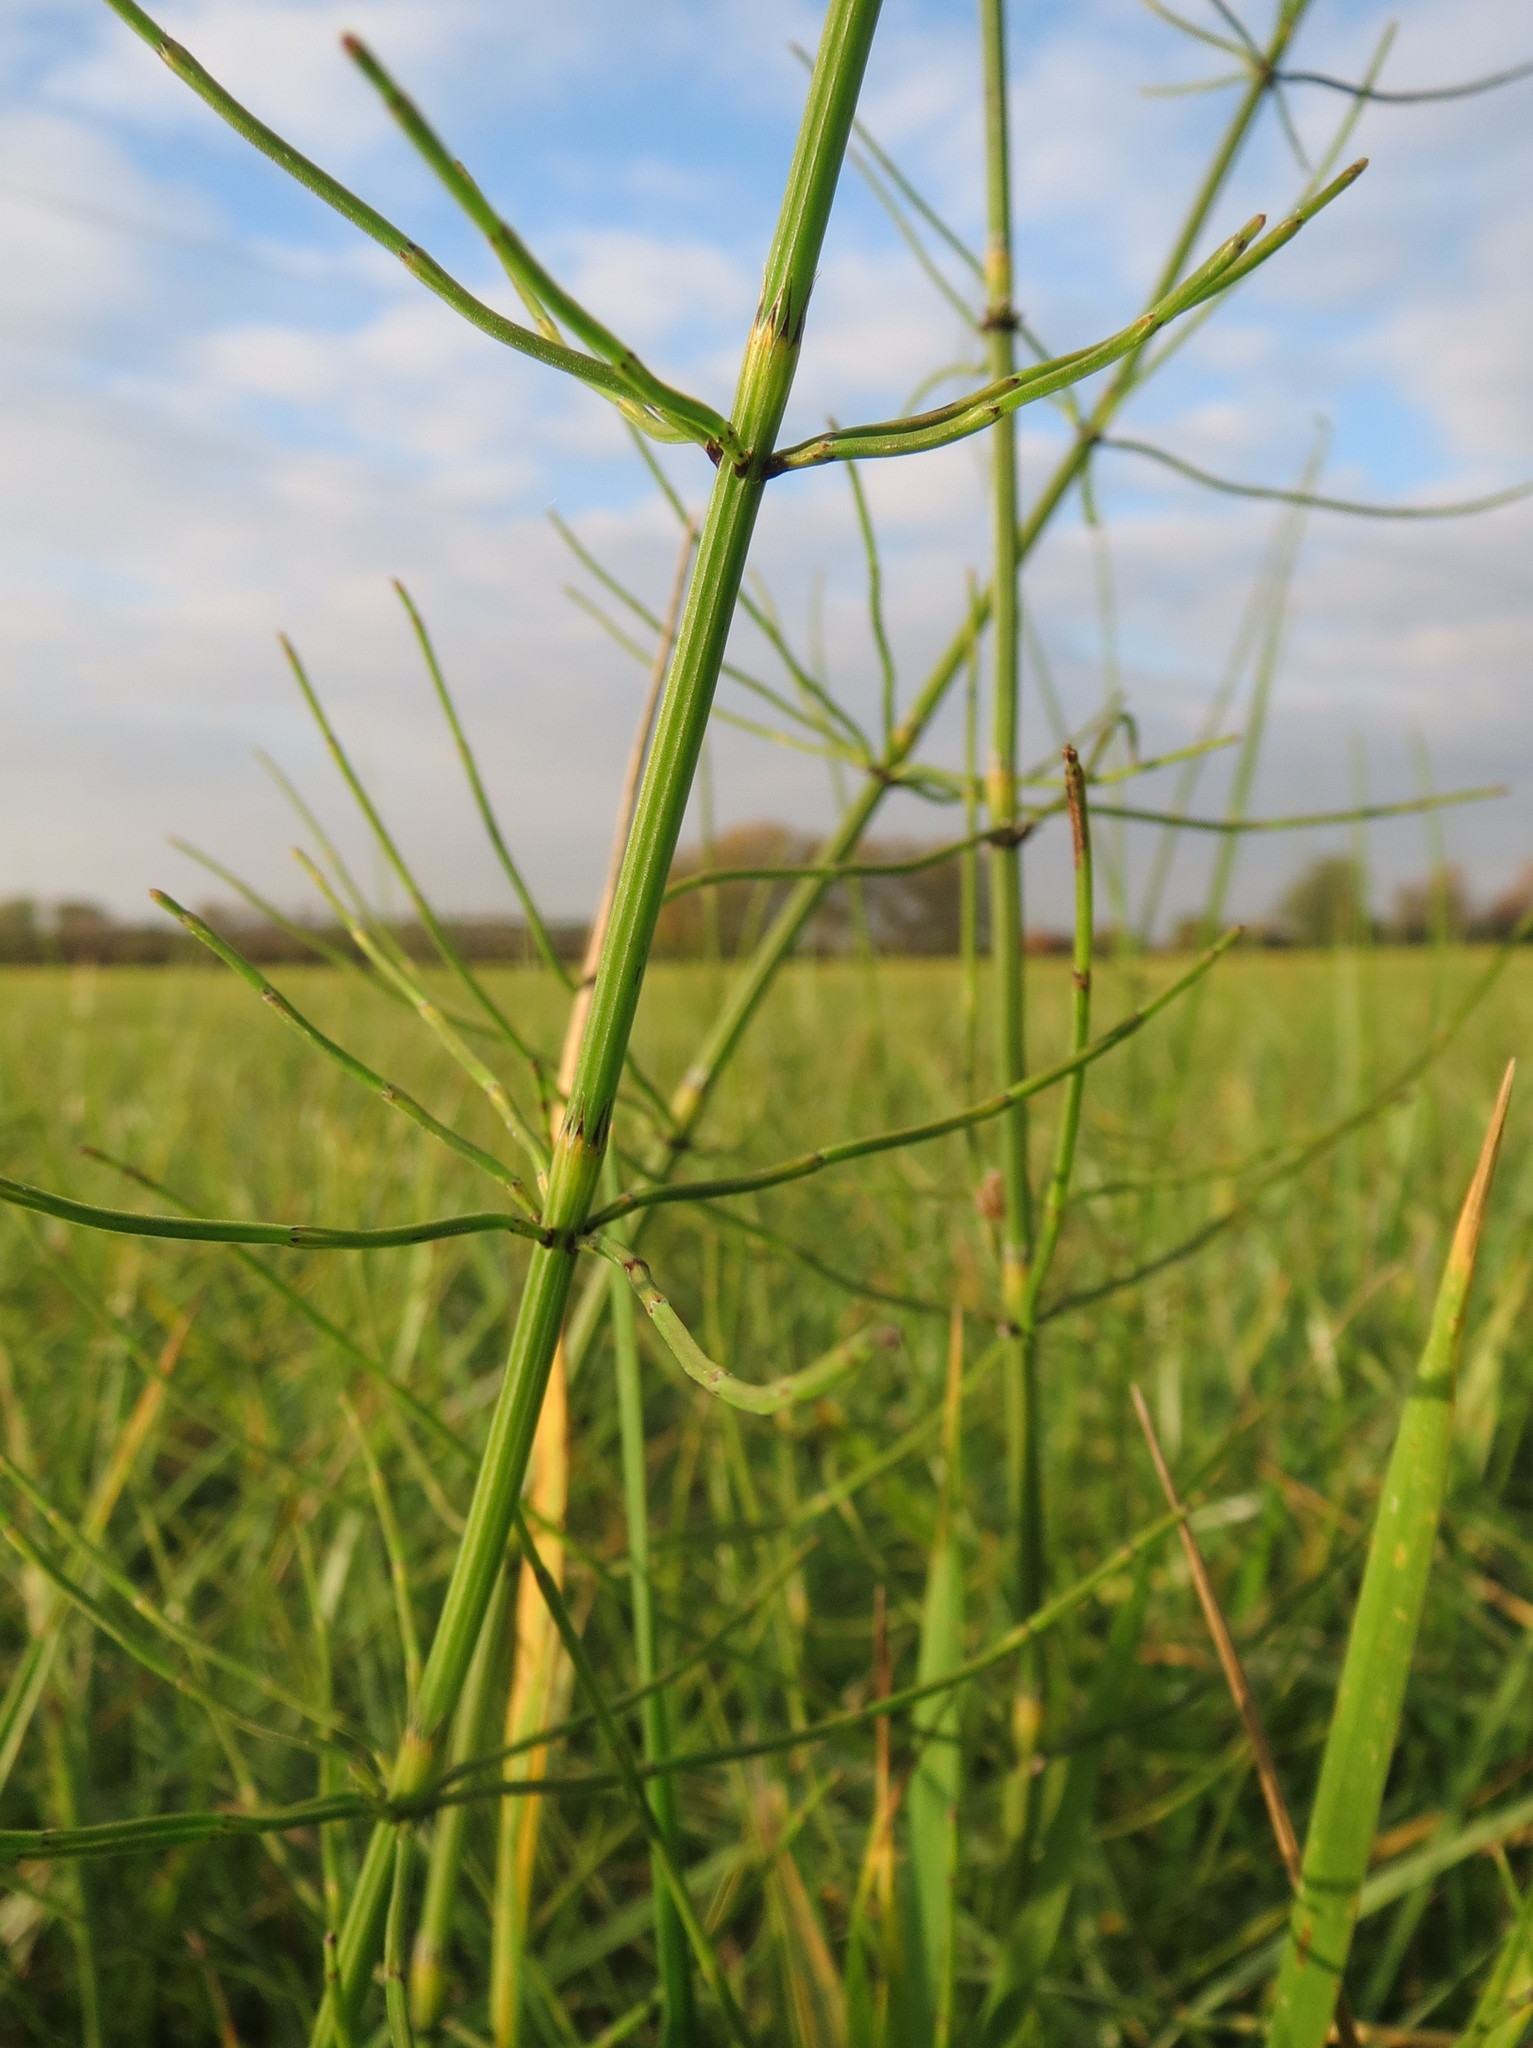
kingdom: Plantae
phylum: Tracheophyta
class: Polypodiopsida
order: Equisetales
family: Equisetaceae
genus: Equisetum
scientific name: Equisetum palustre
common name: Marsh horsetail
